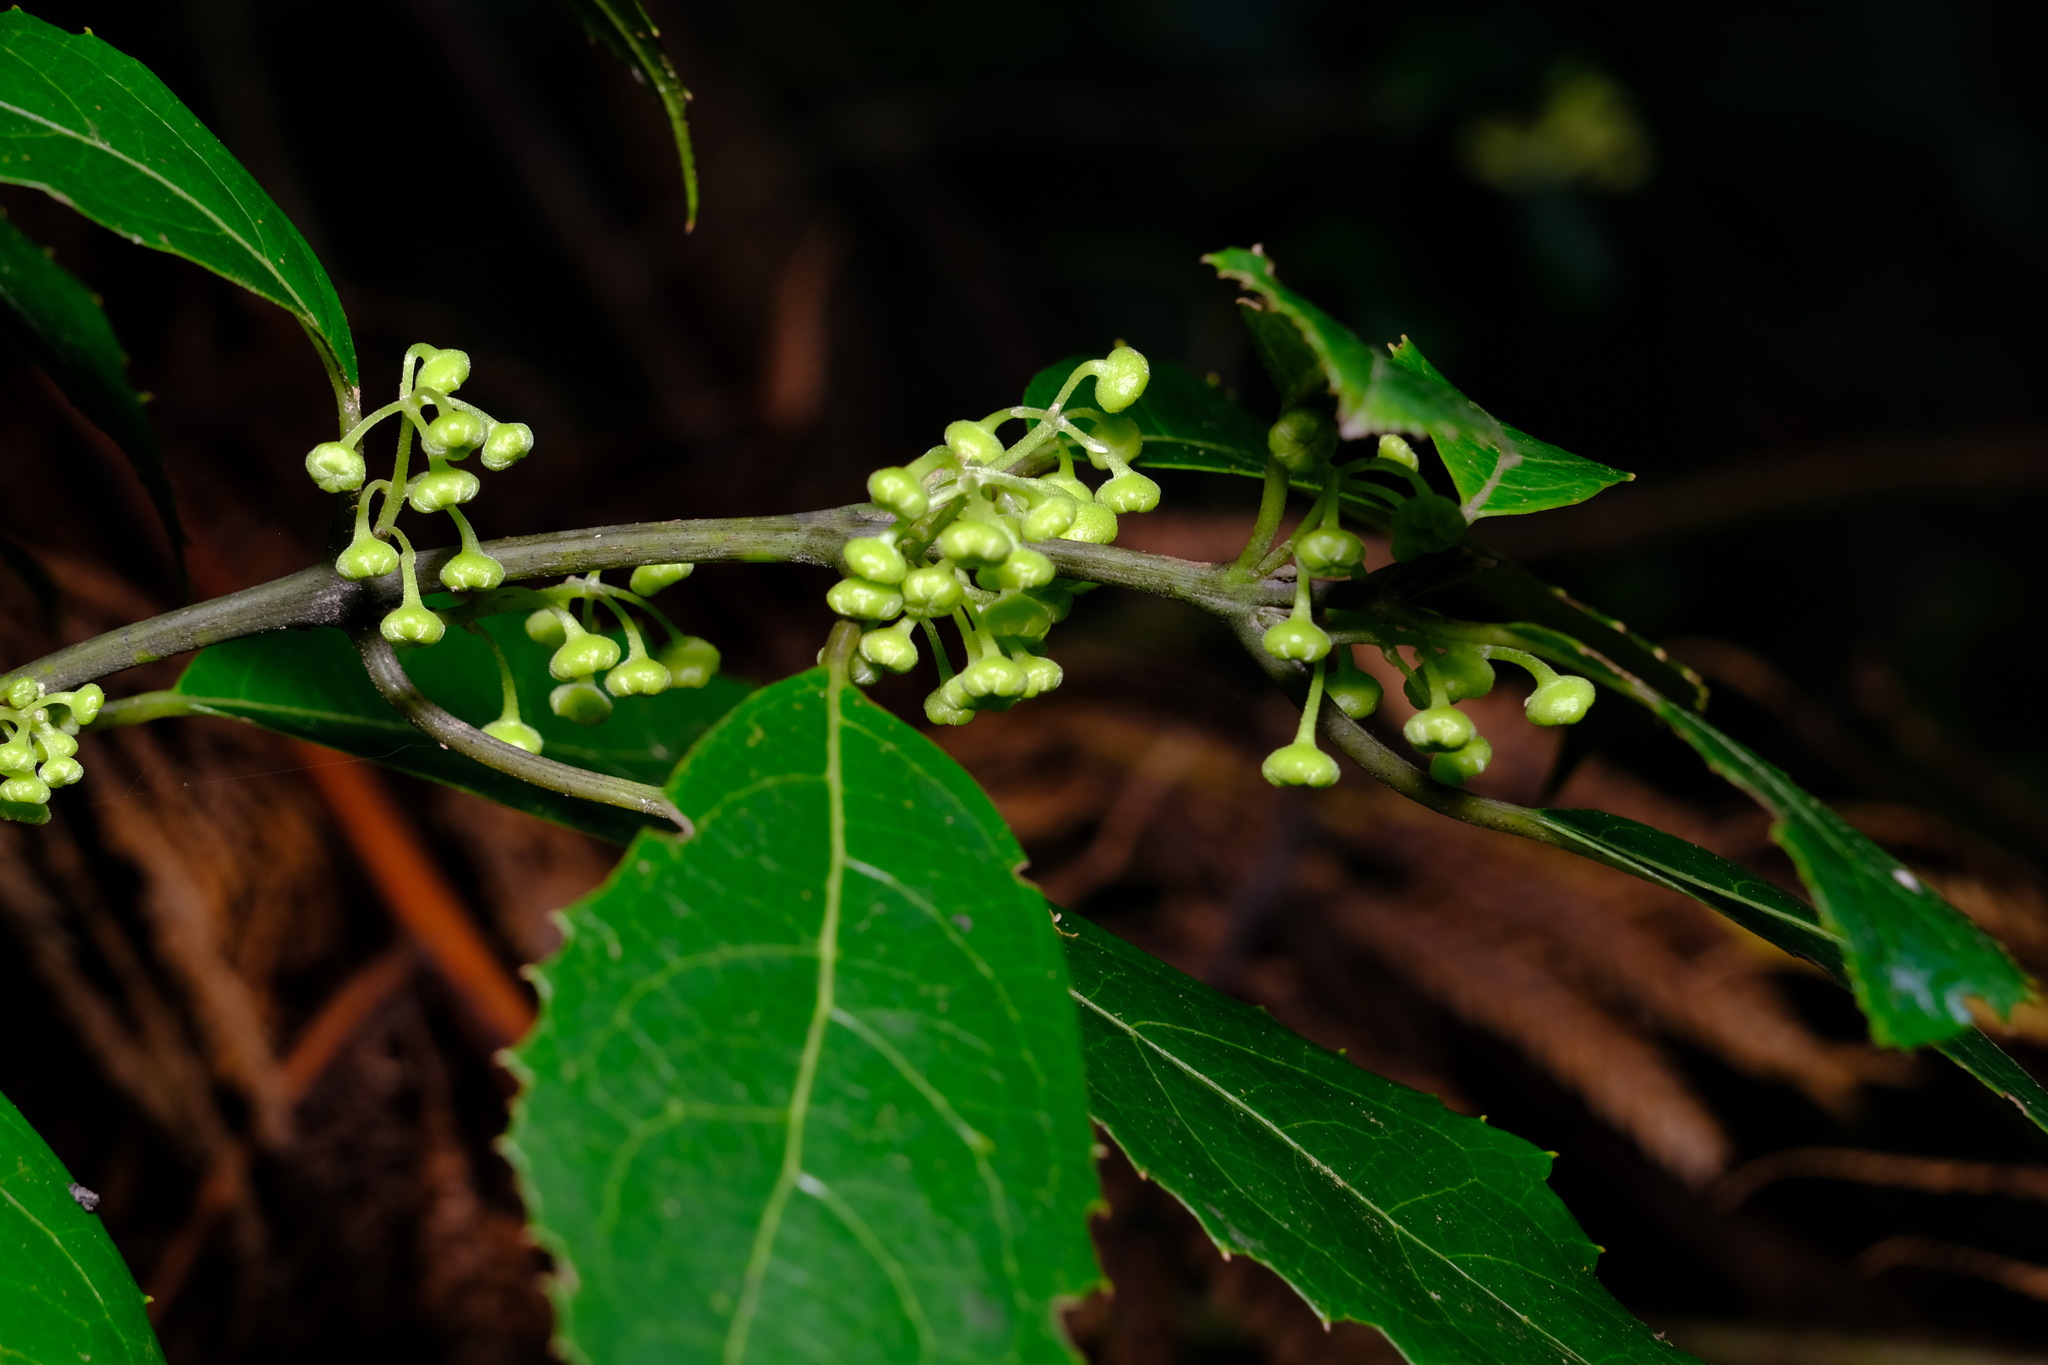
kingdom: Plantae
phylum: Tracheophyta
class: Magnoliopsida
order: Laurales
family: Monimiaceae
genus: Hedycarya
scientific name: Hedycarya angustifolia
